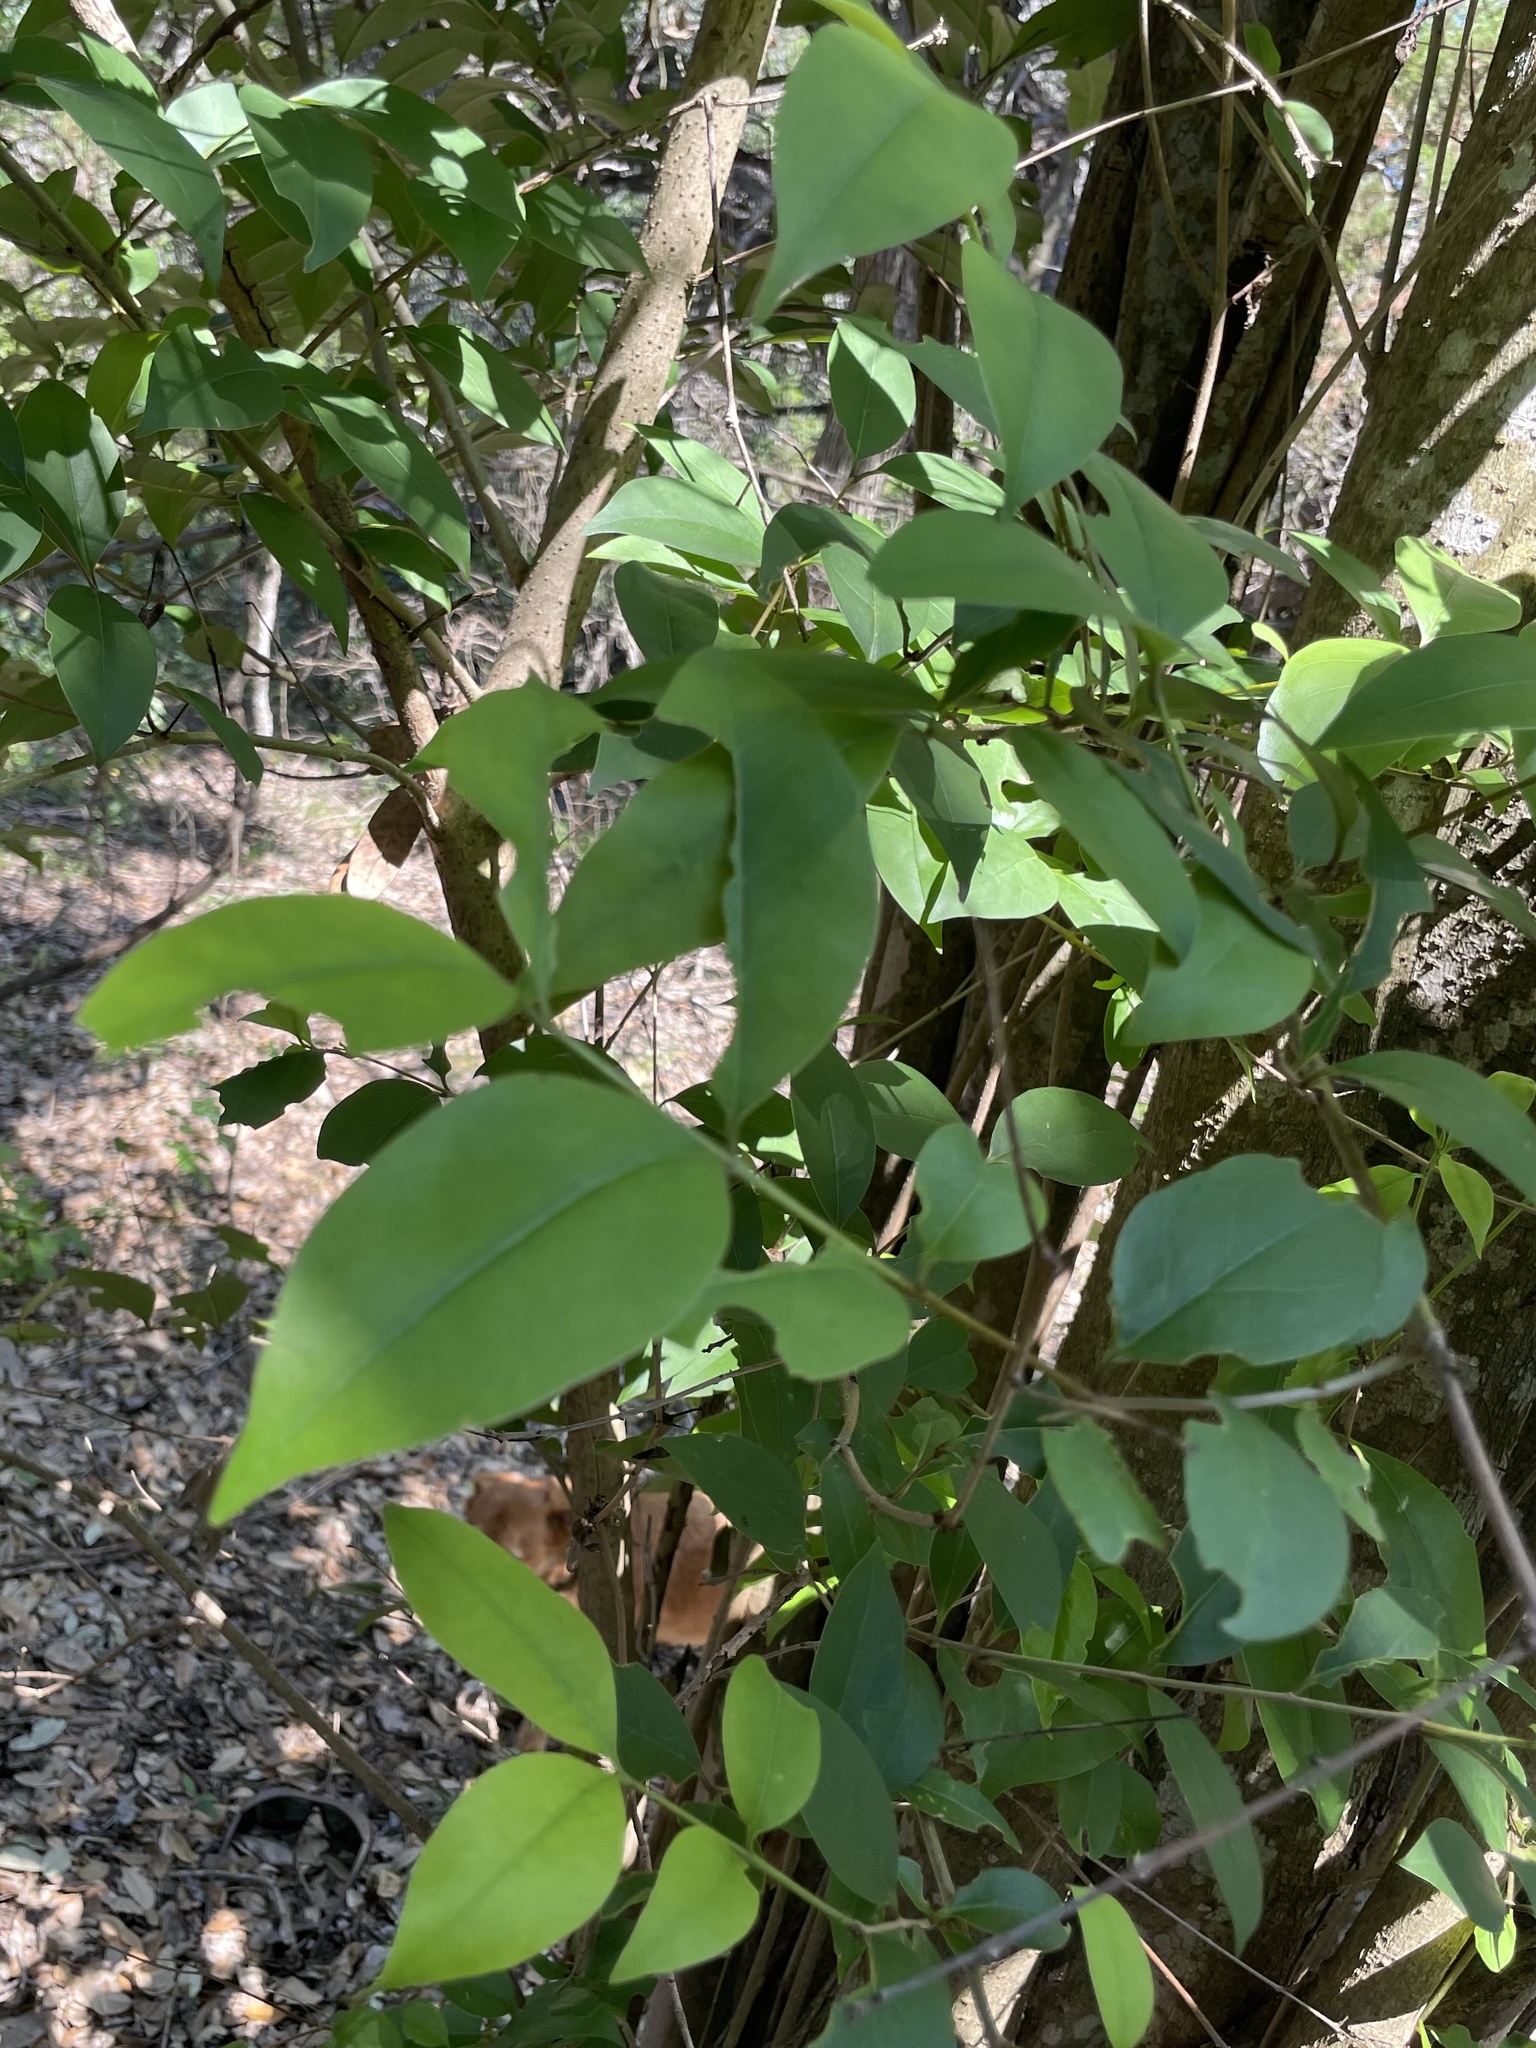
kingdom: Plantae
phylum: Tracheophyta
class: Magnoliopsida
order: Lamiales
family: Oleaceae
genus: Ligustrum
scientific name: Ligustrum lucidum
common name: Glossy privet
